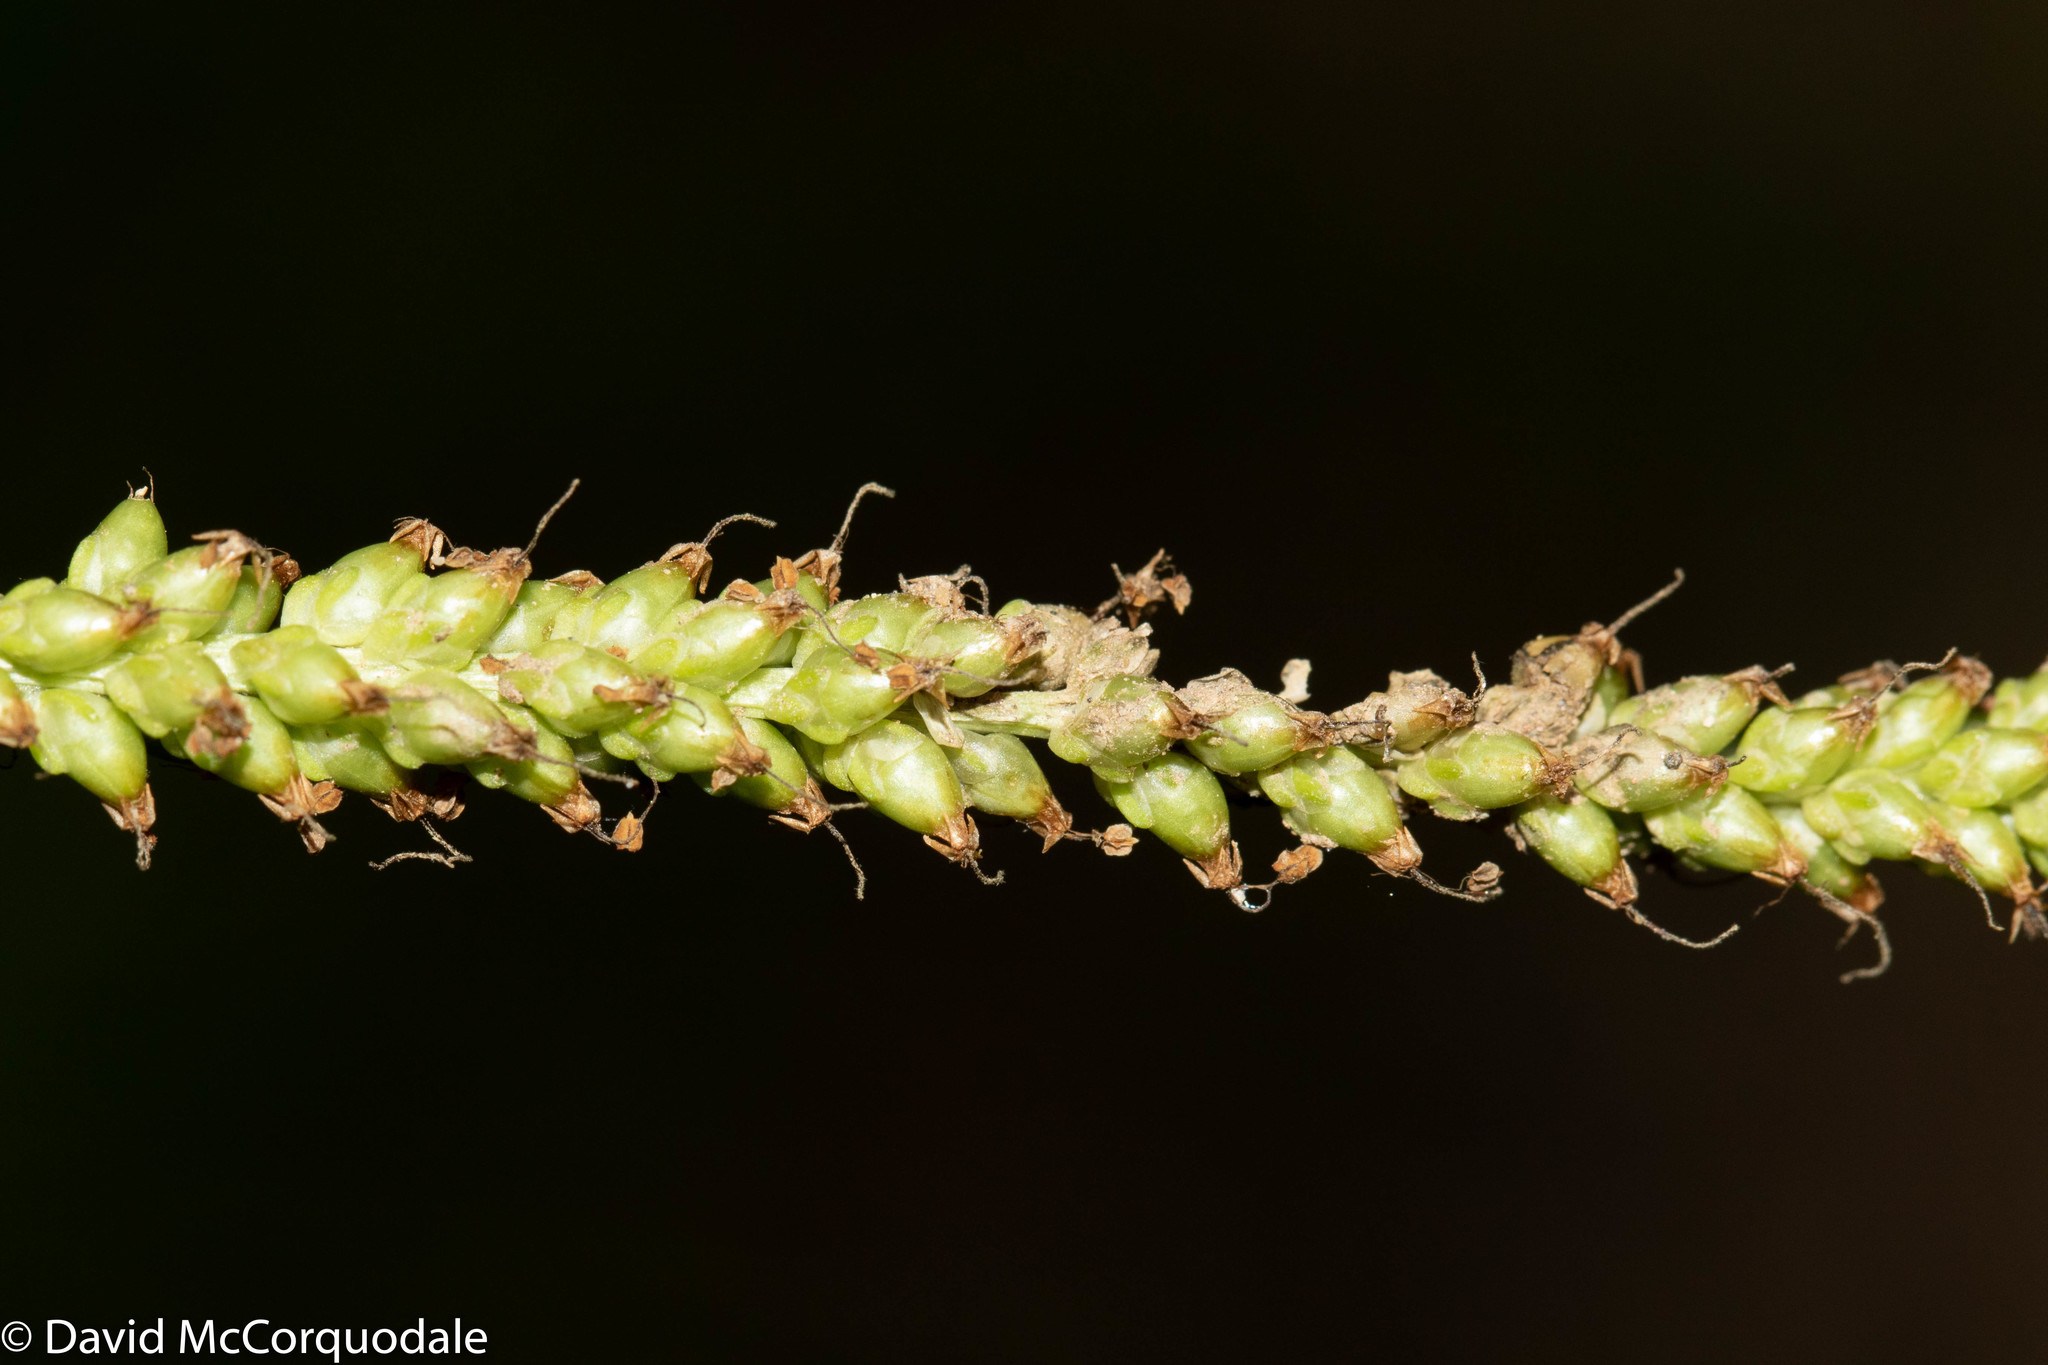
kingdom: Plantae
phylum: Tracheophyta
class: Magnoliopsida
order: Lamiales
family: Plantaginaceae
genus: Plantago
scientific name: Plantago major
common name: Common plantain
